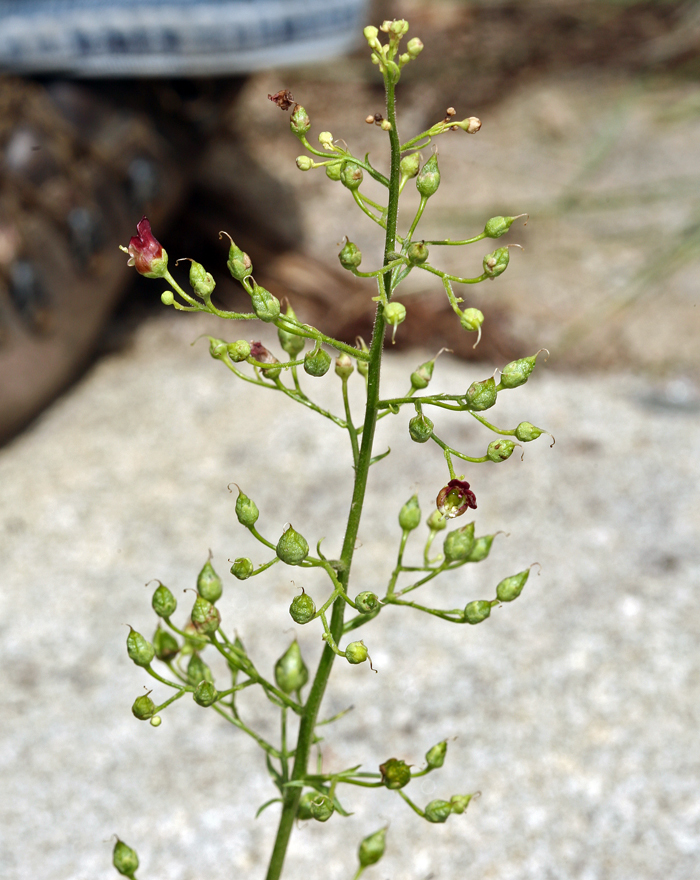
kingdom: Plantae
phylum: Tracheophyta
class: Magnoliopsida
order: Lamiales
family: Scrophulariaceae
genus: Scrophularia
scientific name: Scrophularia desertorum
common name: Desert figwort
